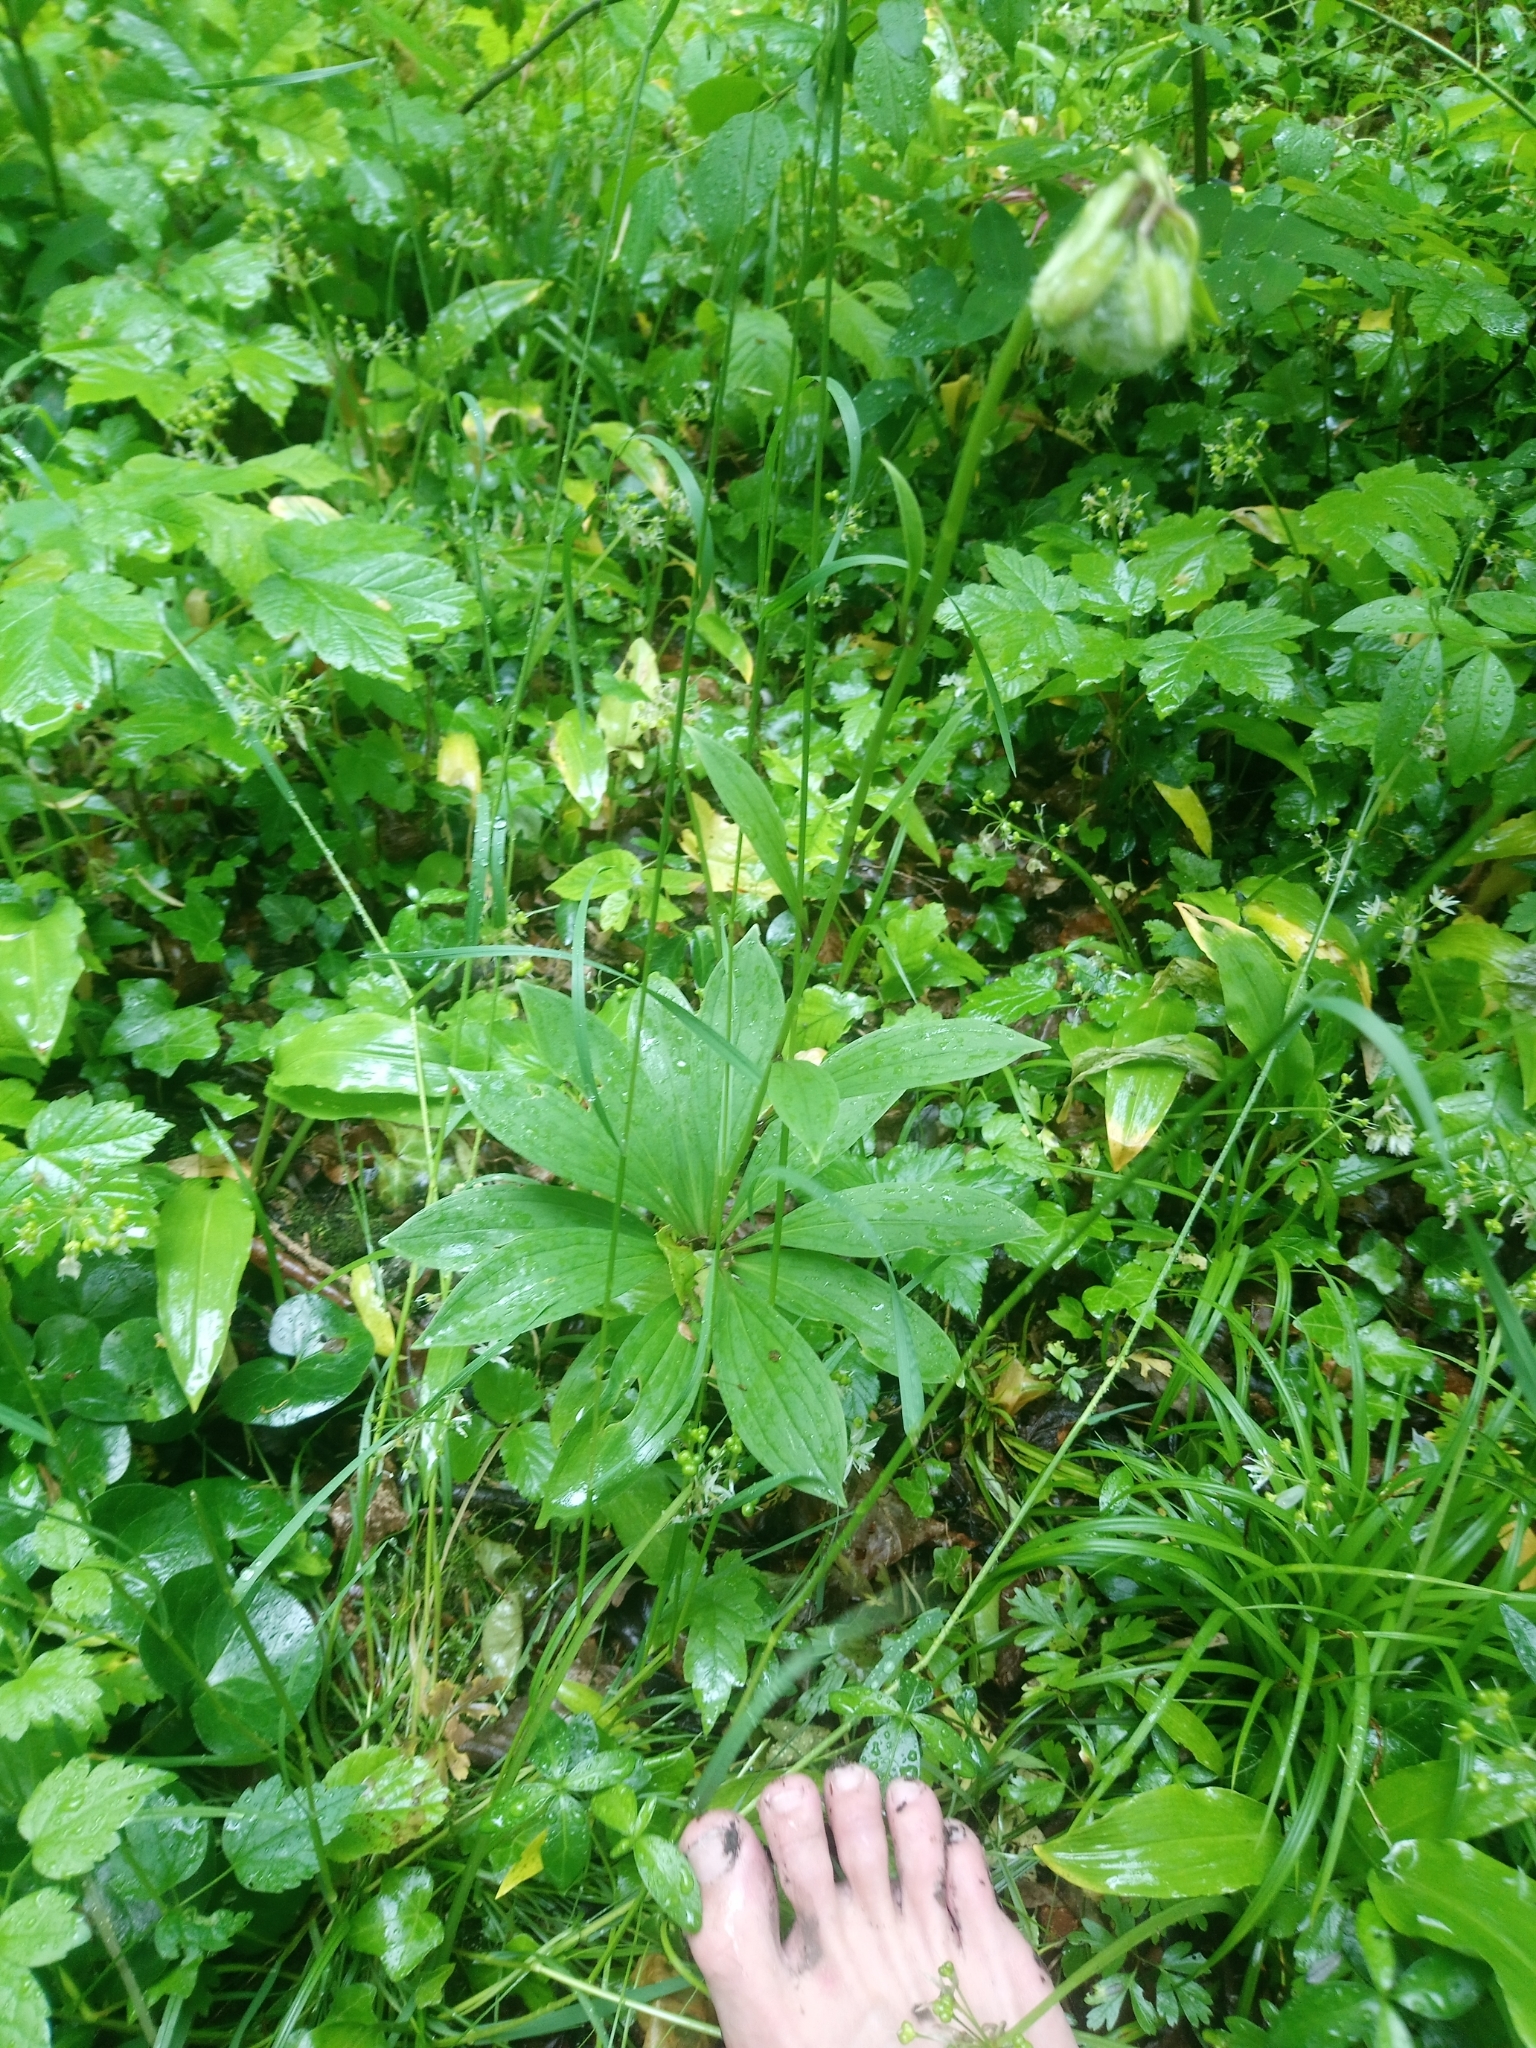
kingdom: Plantae
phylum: Tracheophyta
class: Liliopsida
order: Liliales
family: Liliaceae
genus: Lilium
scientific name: Lilium martagon
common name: Martagon lily
